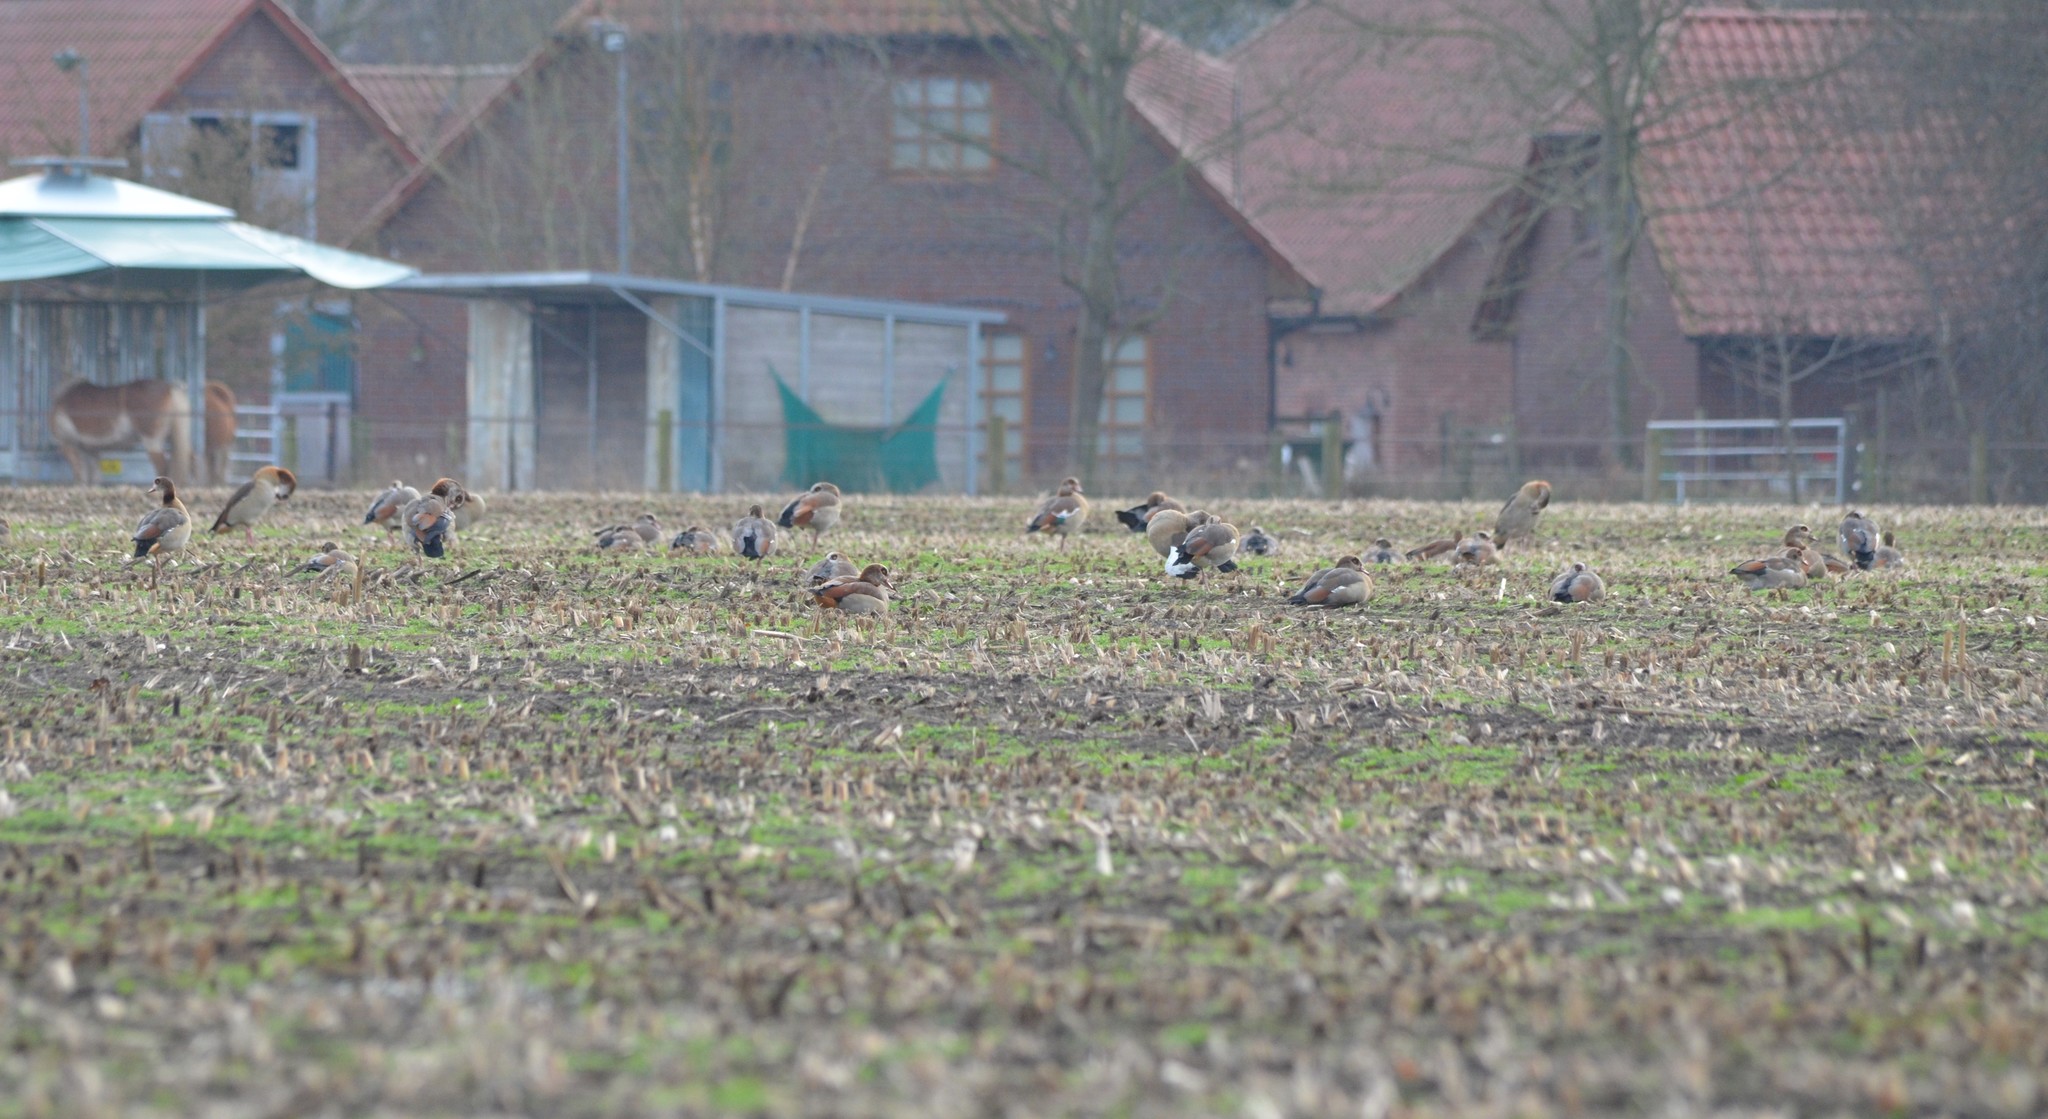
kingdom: Animalia
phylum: Chordata
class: Aves
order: Anseriformes
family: Anatidae
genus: Alopochen
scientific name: Alopochen aegyptiaca
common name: Egyptian goose
